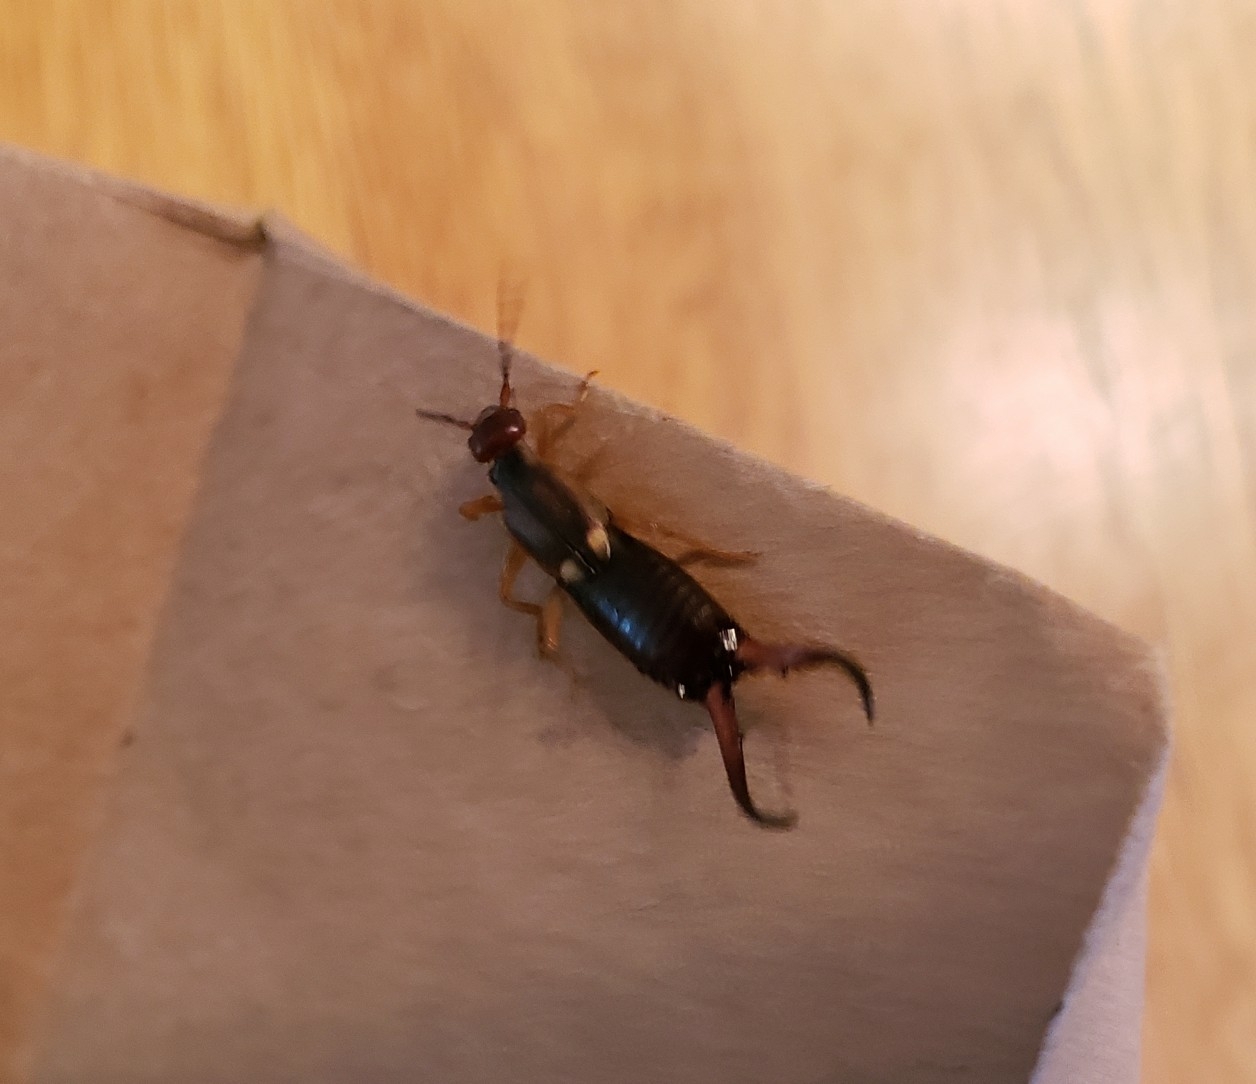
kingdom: Animalia
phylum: Arthropoda
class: Insecta
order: Dermaptera
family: Forficulidae
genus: Forficula
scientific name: Forficula
